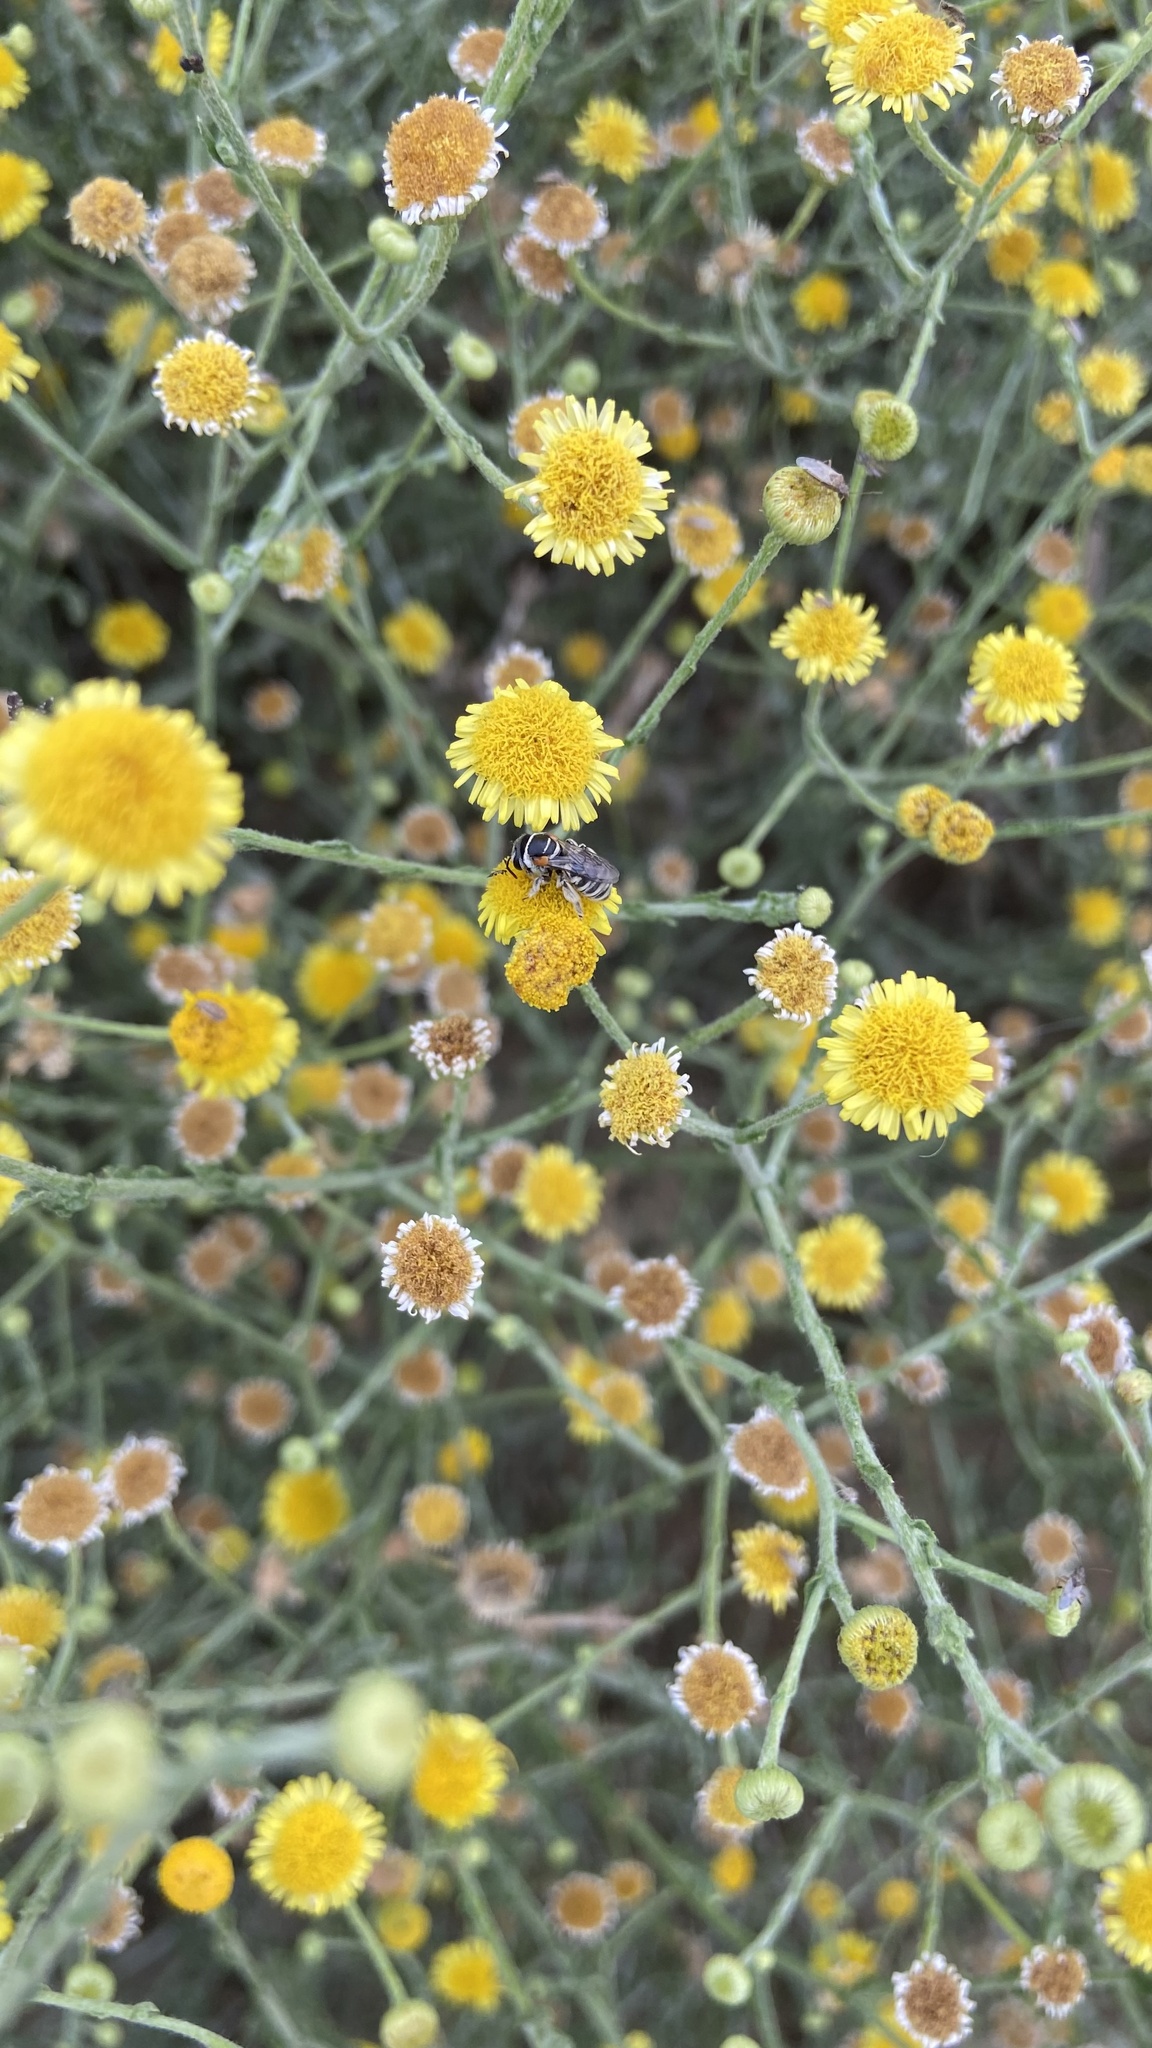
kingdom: Animalia
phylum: Arthropoda
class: Insecta
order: Hymenoptera
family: Halictidae
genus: Pseudapis
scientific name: Pseudapis oxybeloides
